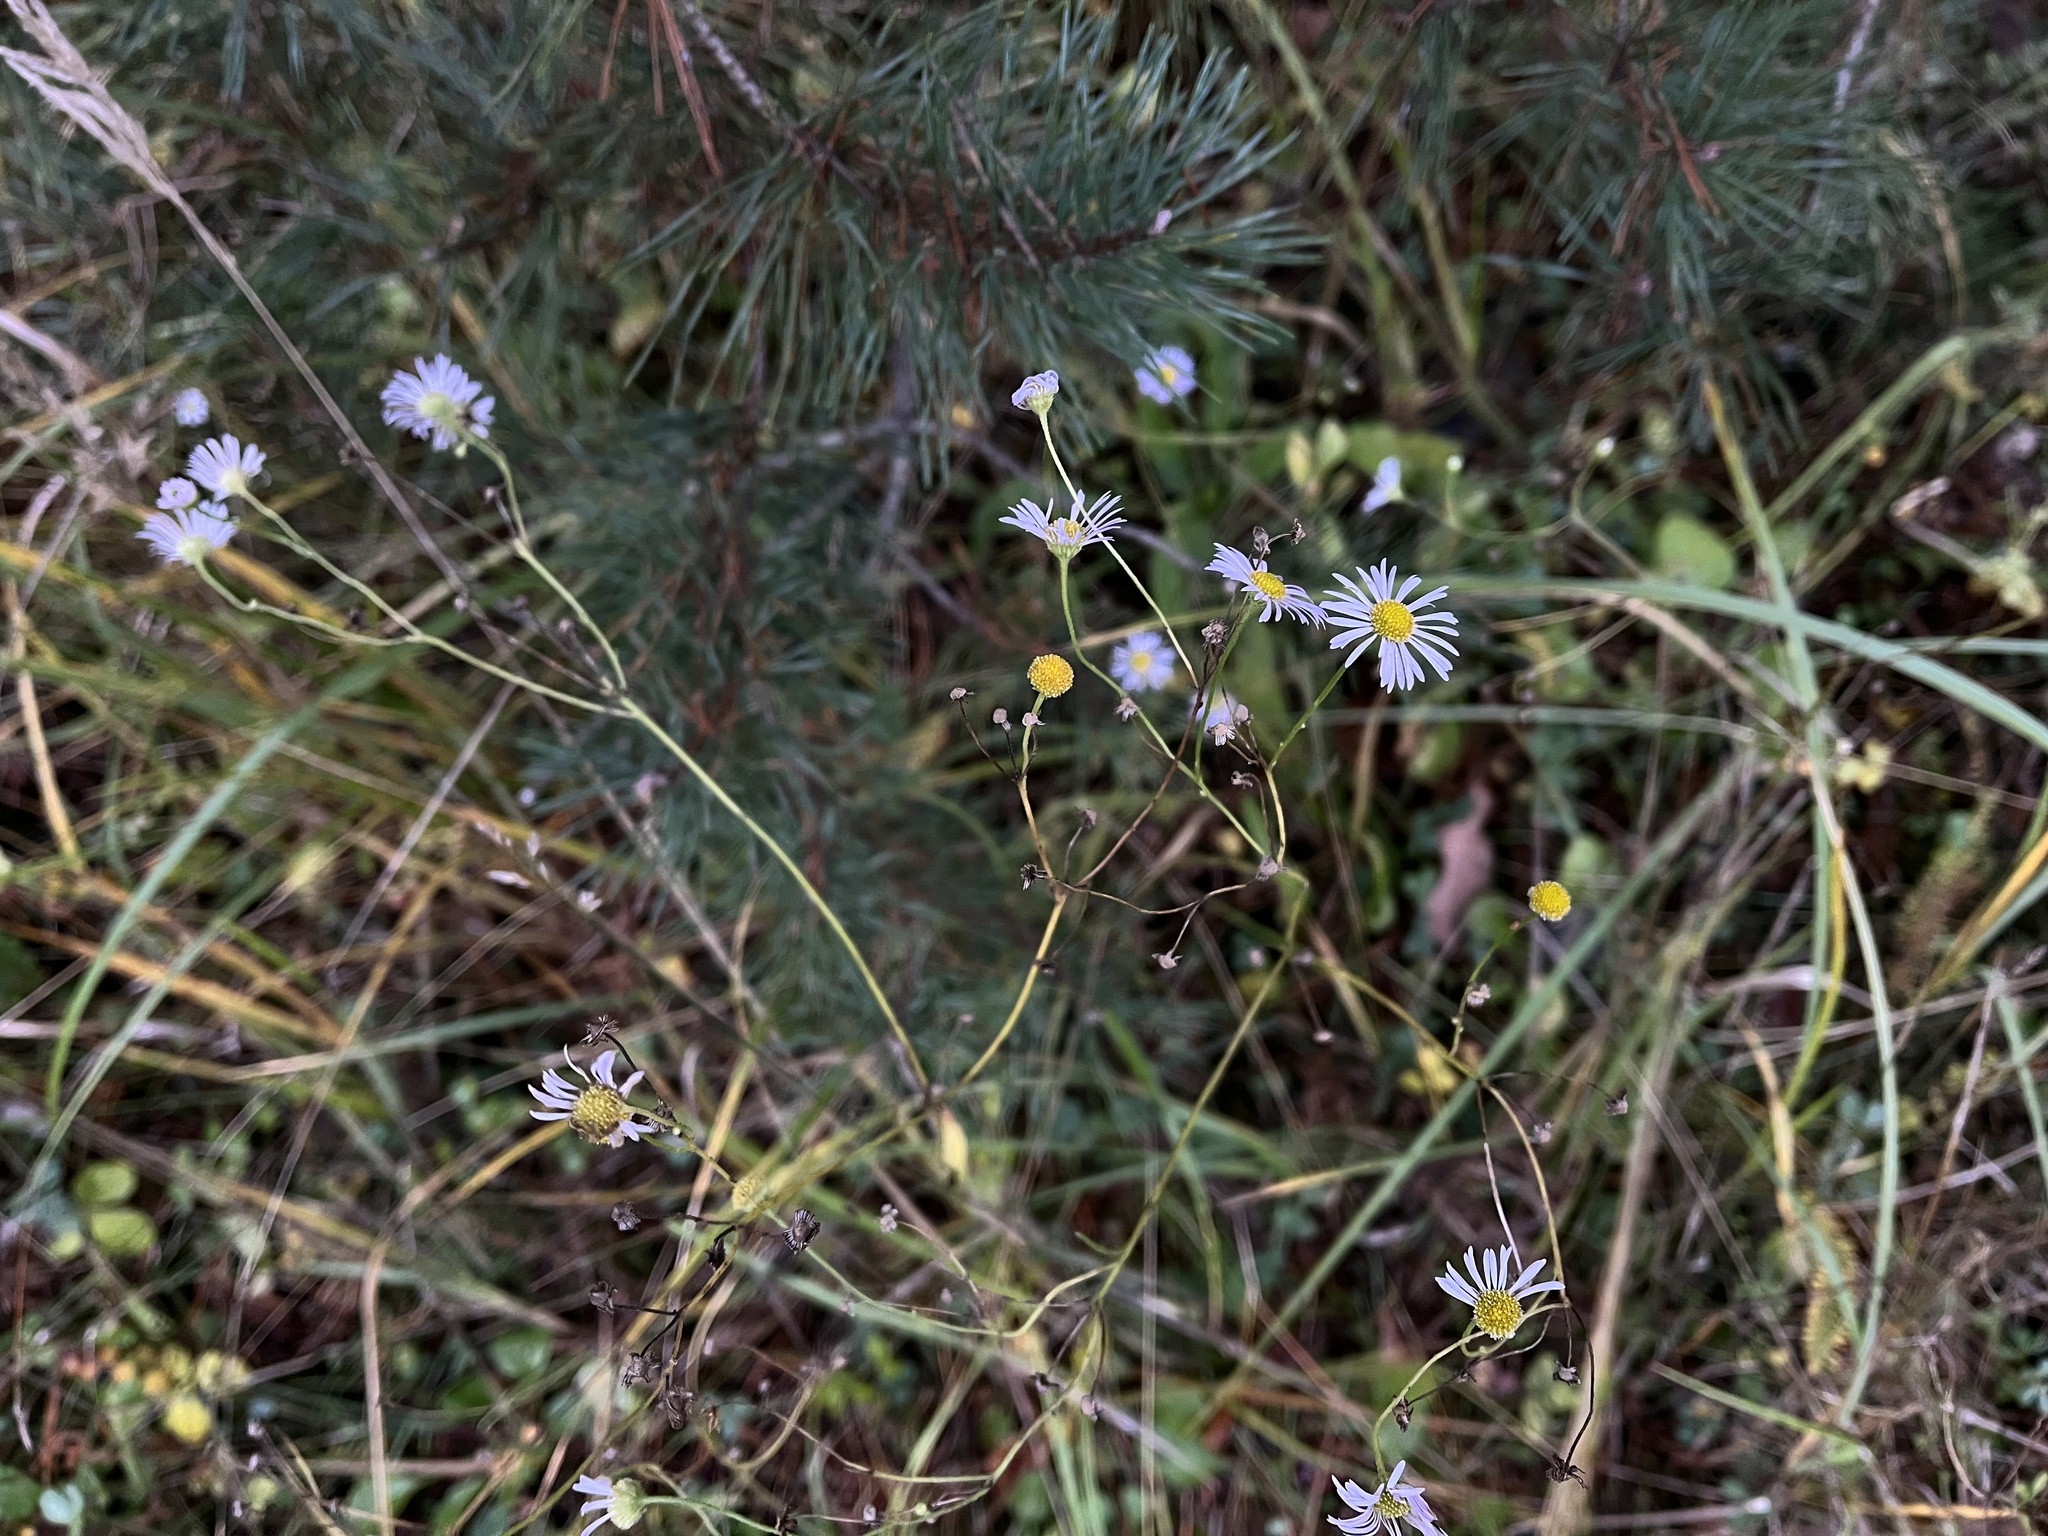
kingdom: Plantae
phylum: Tracheophyta
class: Magnoliopsida
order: Asterales
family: Asteraceae
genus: Erigeron
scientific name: Erigeron annuus
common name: Tall fleabane
